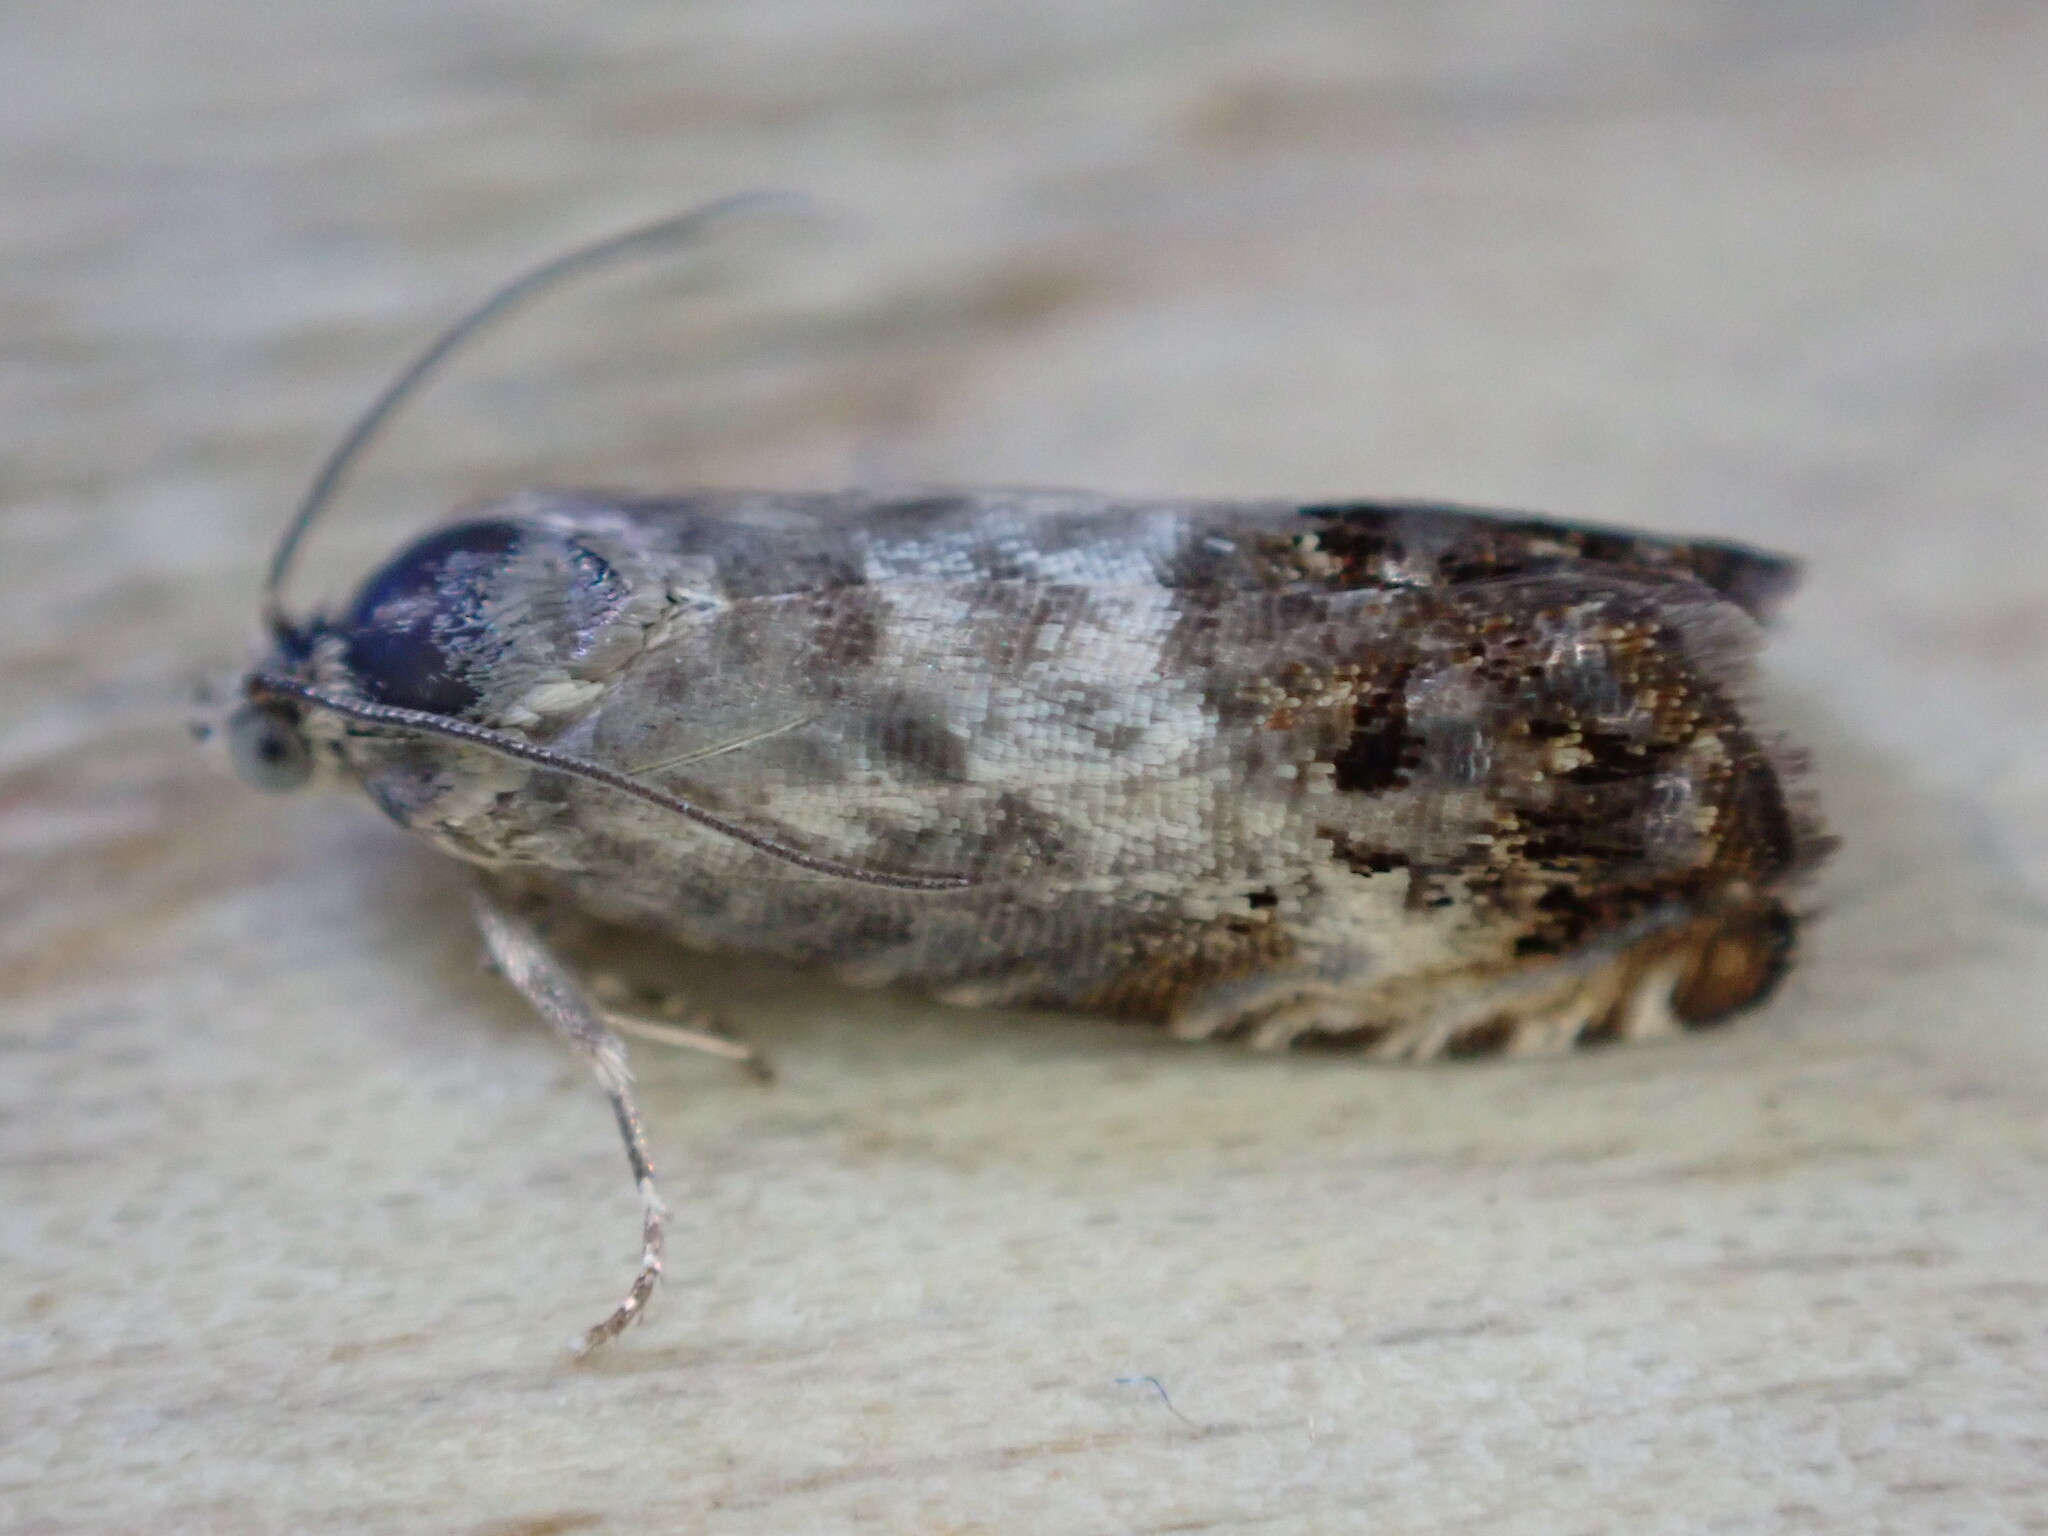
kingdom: Animalia
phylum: Arthropoda
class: Insecta
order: Lepidoptera
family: Tortricidae
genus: Pammene
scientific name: Pammene fasciana
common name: Acorn piercer
